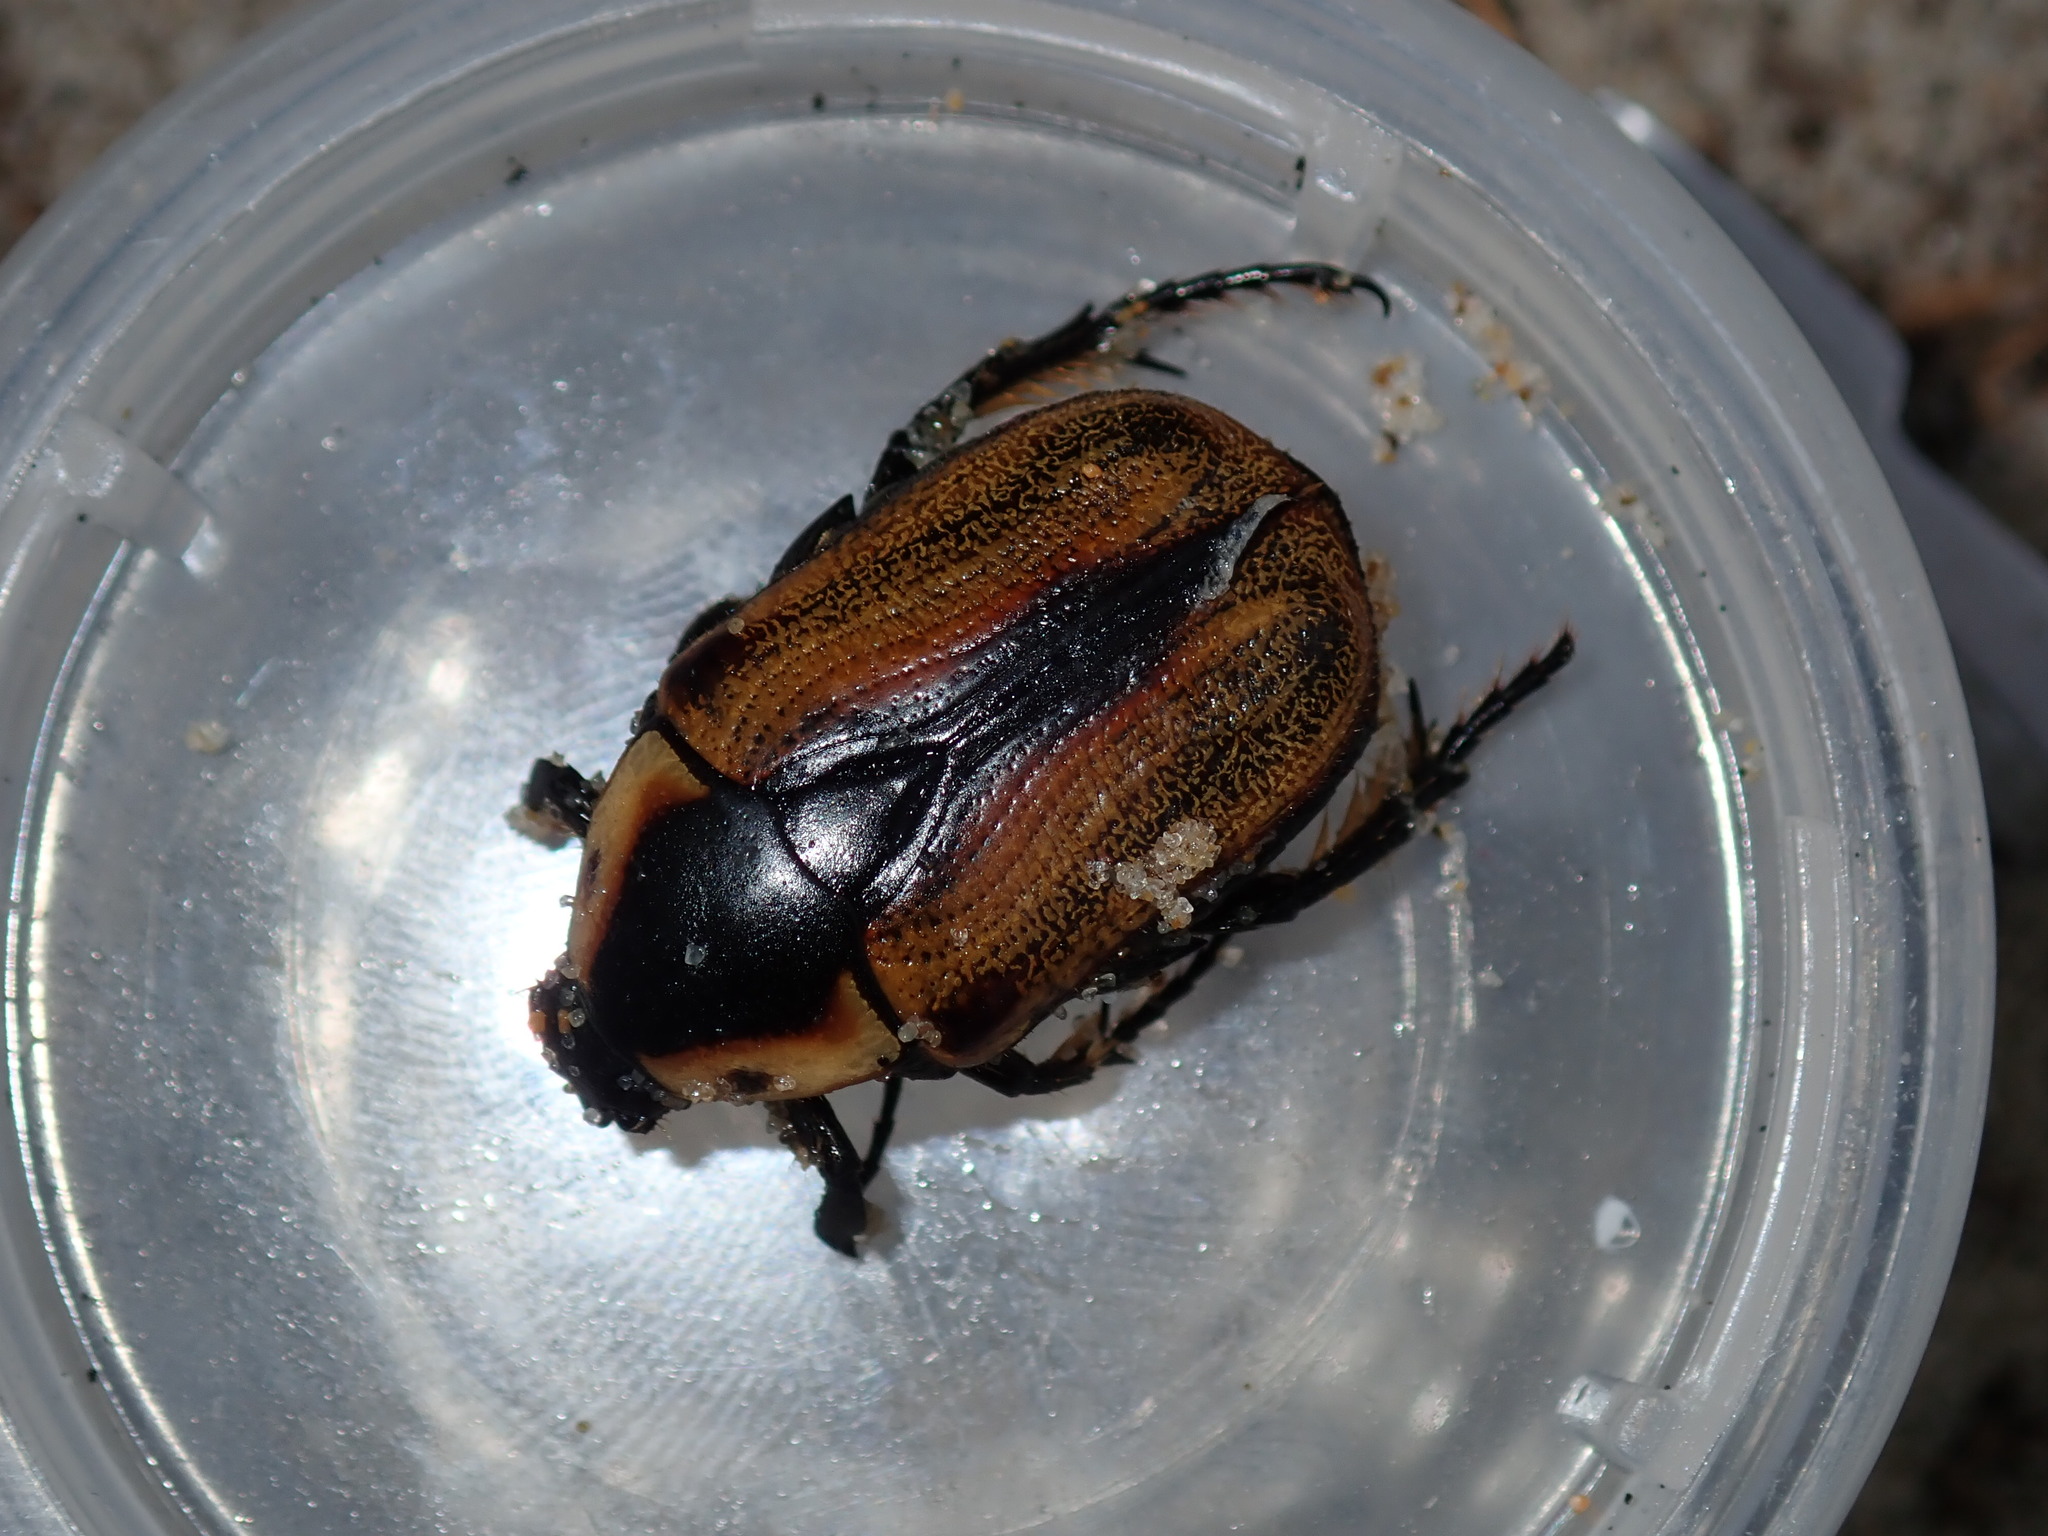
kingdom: Animalia
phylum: Arthropoda
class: Insecta
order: Coleoptera
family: Scarabaeidae
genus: Chondropyga
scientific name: Chondropyga dorsalis
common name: Cowboy beetle
